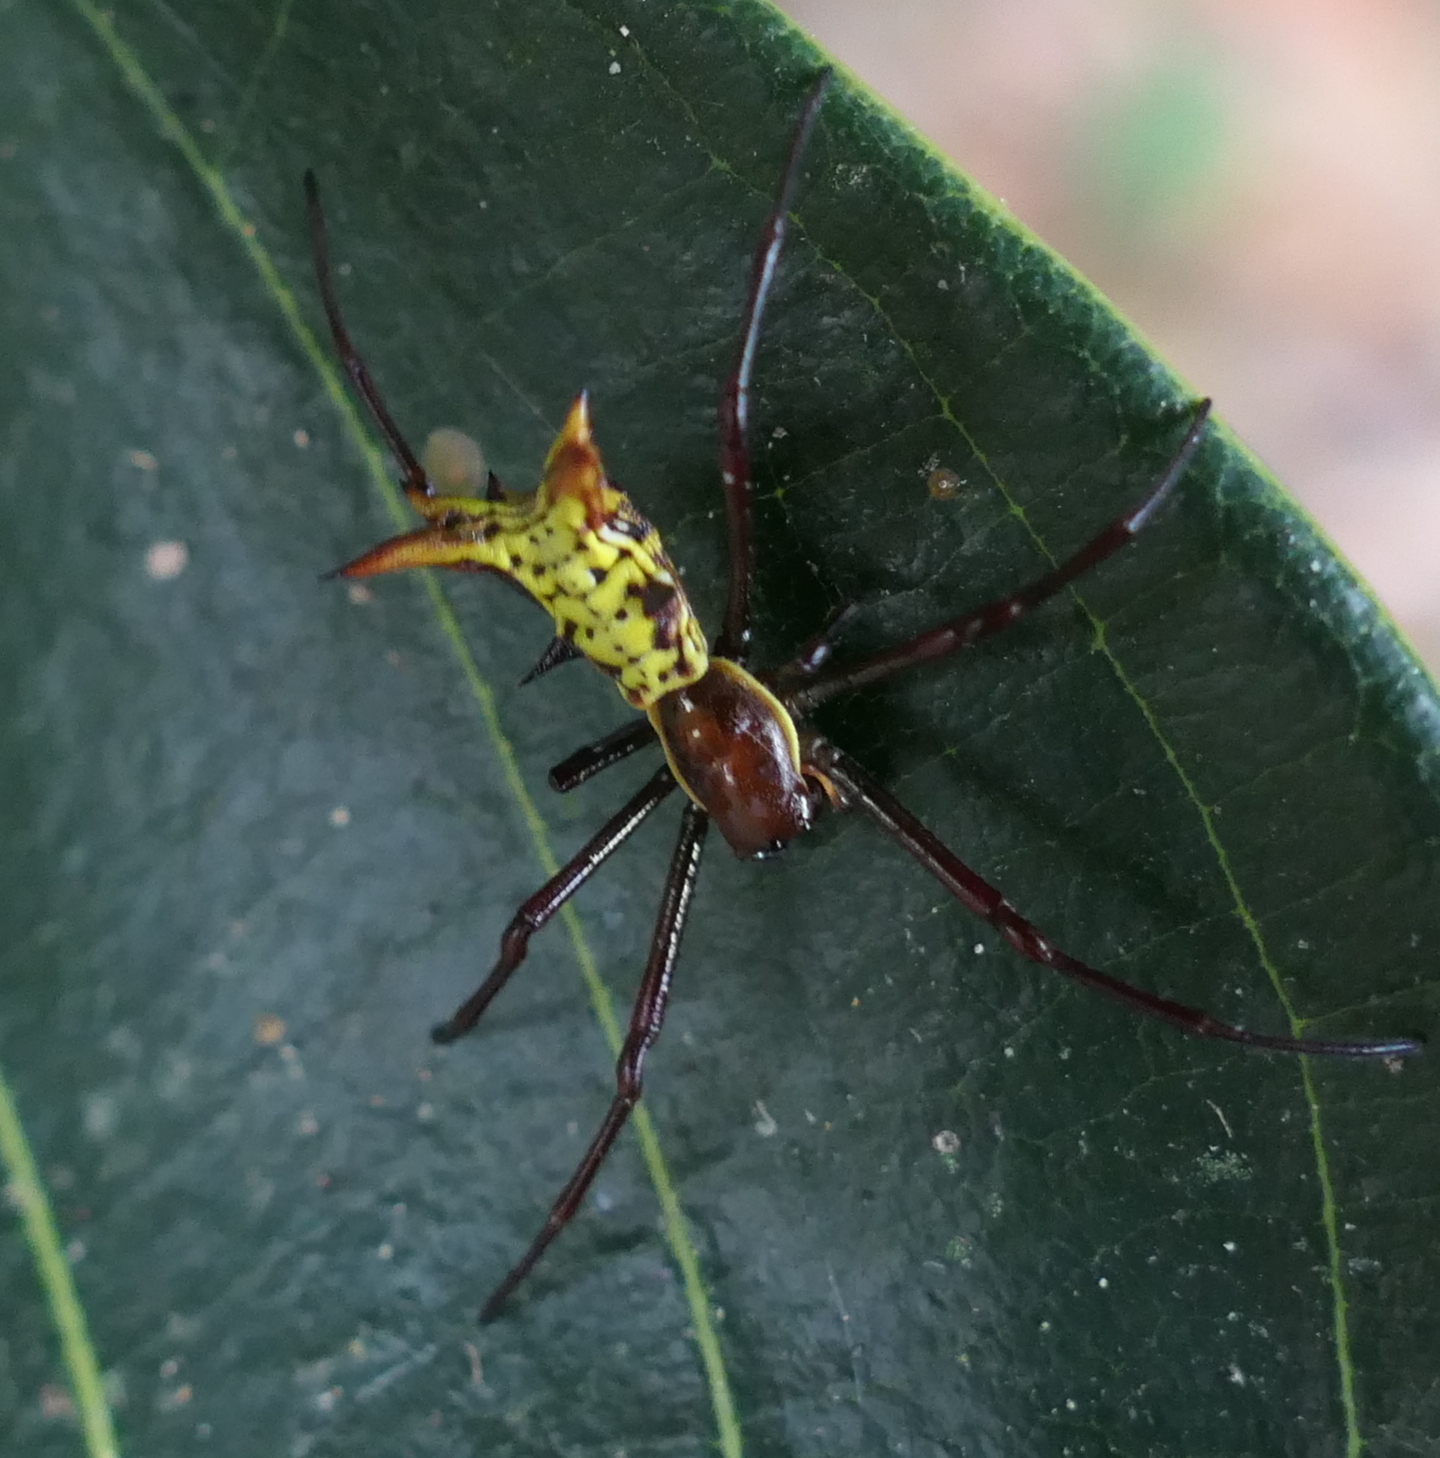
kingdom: Animalia
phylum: Arthropoda
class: Arachnida
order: Araneae
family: Araneidae
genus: Micrathena
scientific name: Micrathena fissispina
